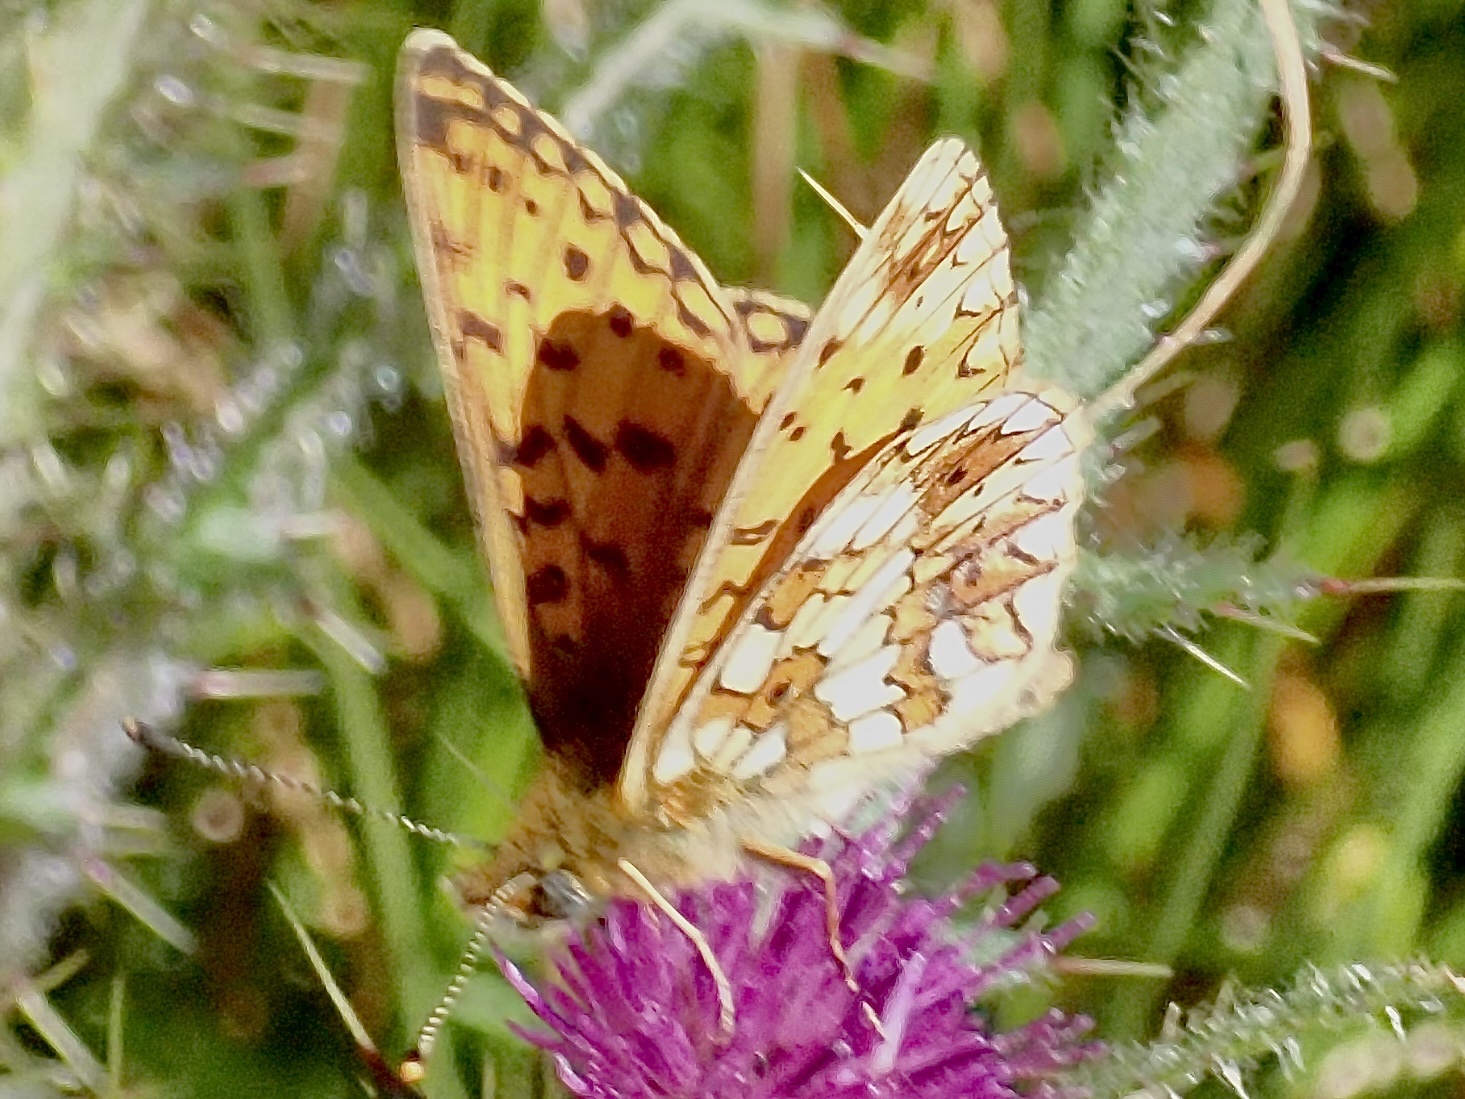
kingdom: Animalia
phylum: Arthropoda
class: Insecta
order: Lepidoptera
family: Nymphalidae
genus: Boloria
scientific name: Boloria selene
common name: Small pearl-bordered fritillary
